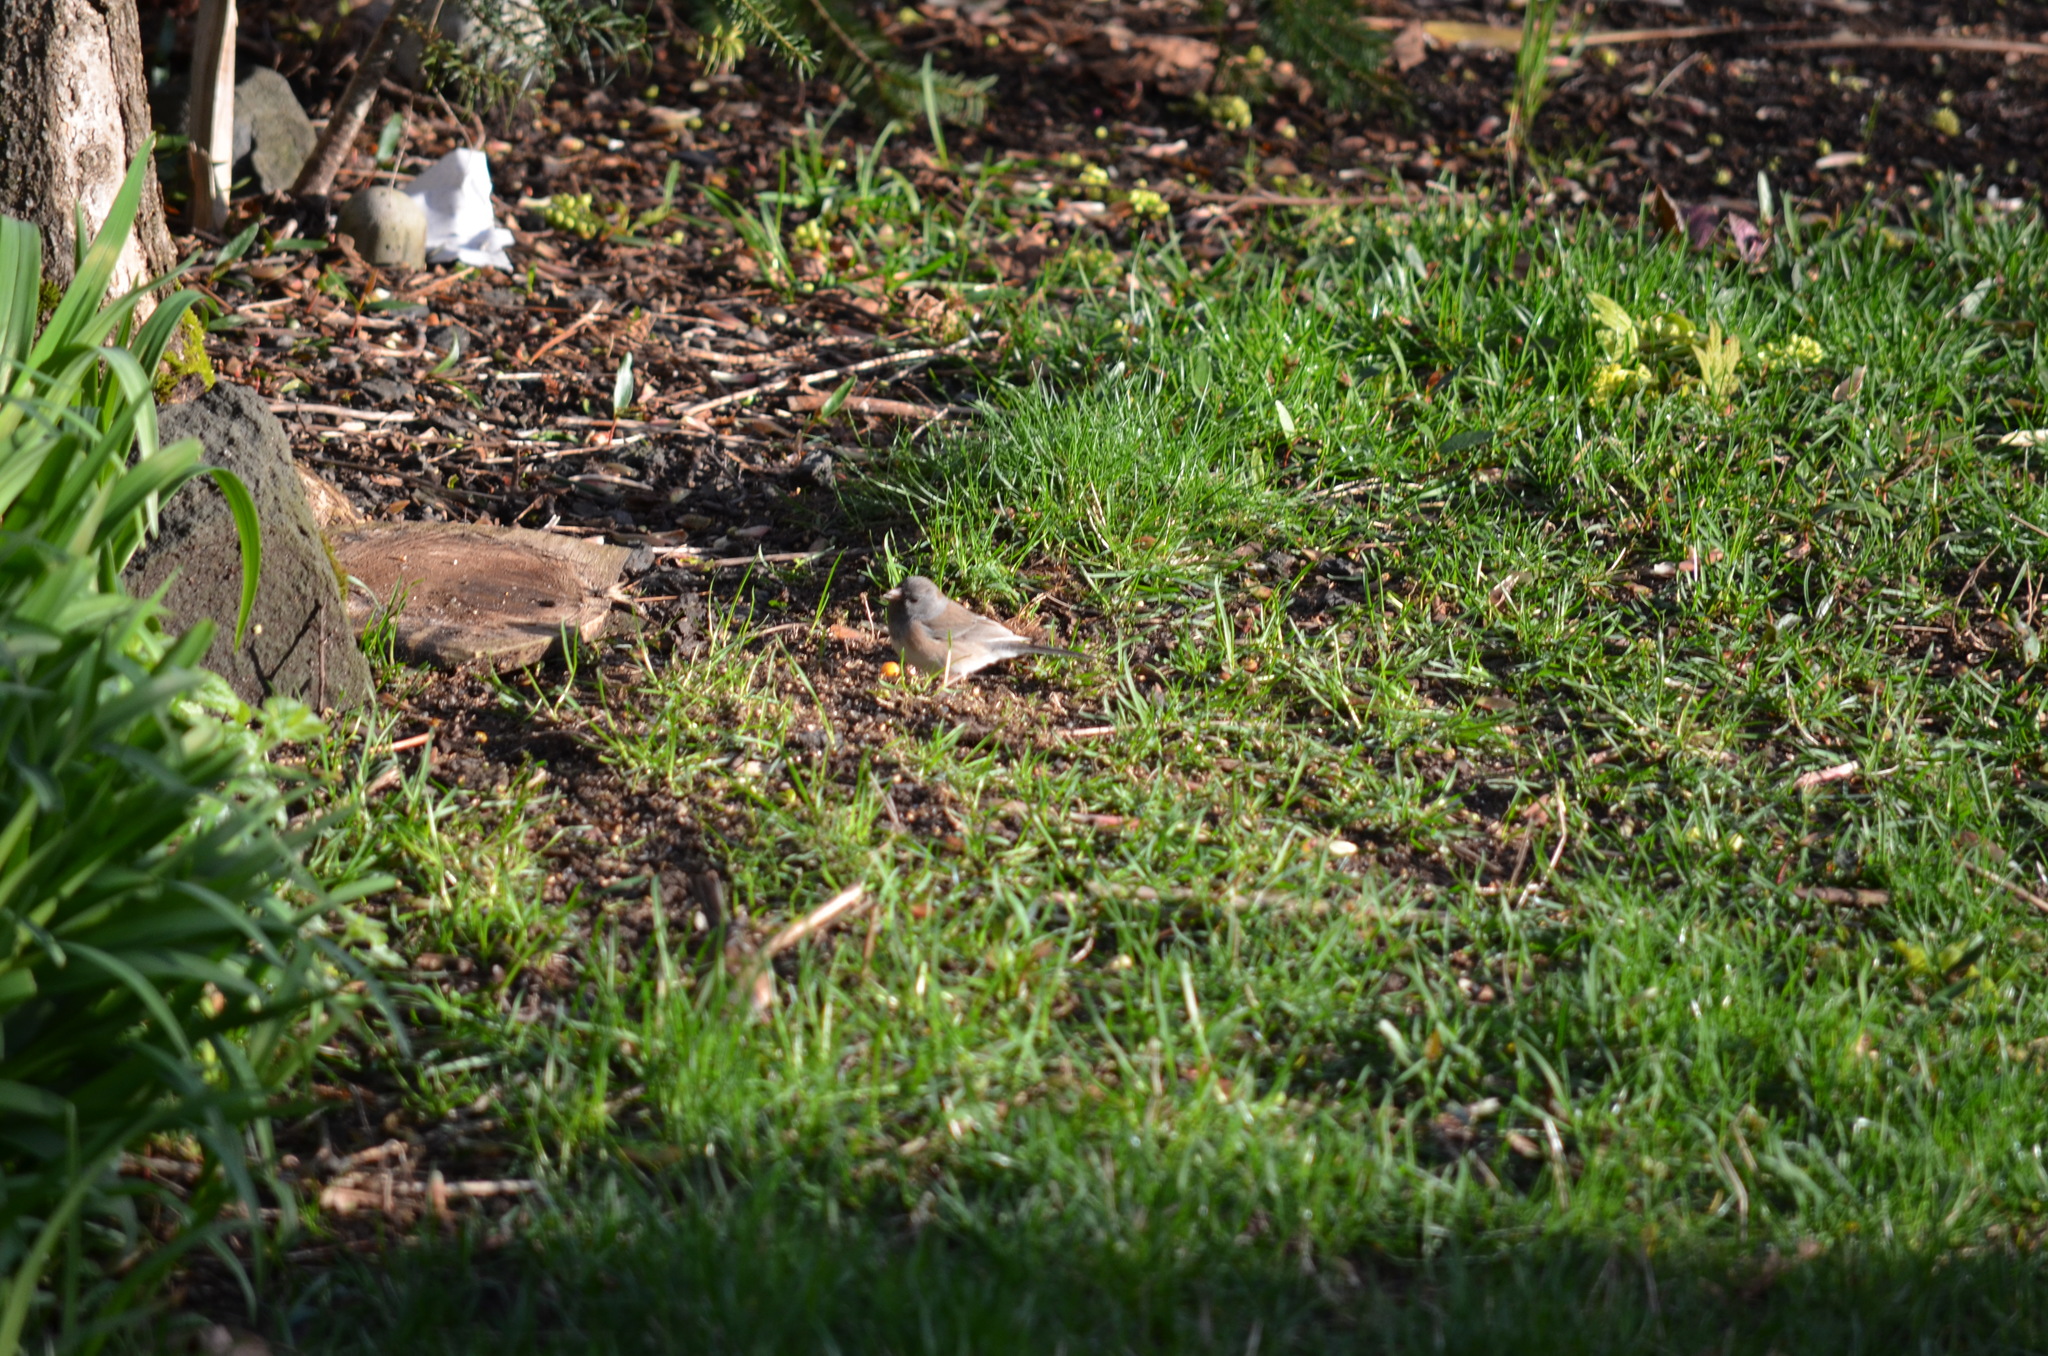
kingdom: Animalia
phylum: Chordata
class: Aves
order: Passeriformes
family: Passerellidae
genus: Junco
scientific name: Junco hyemalis
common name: Dark-eyed junco
